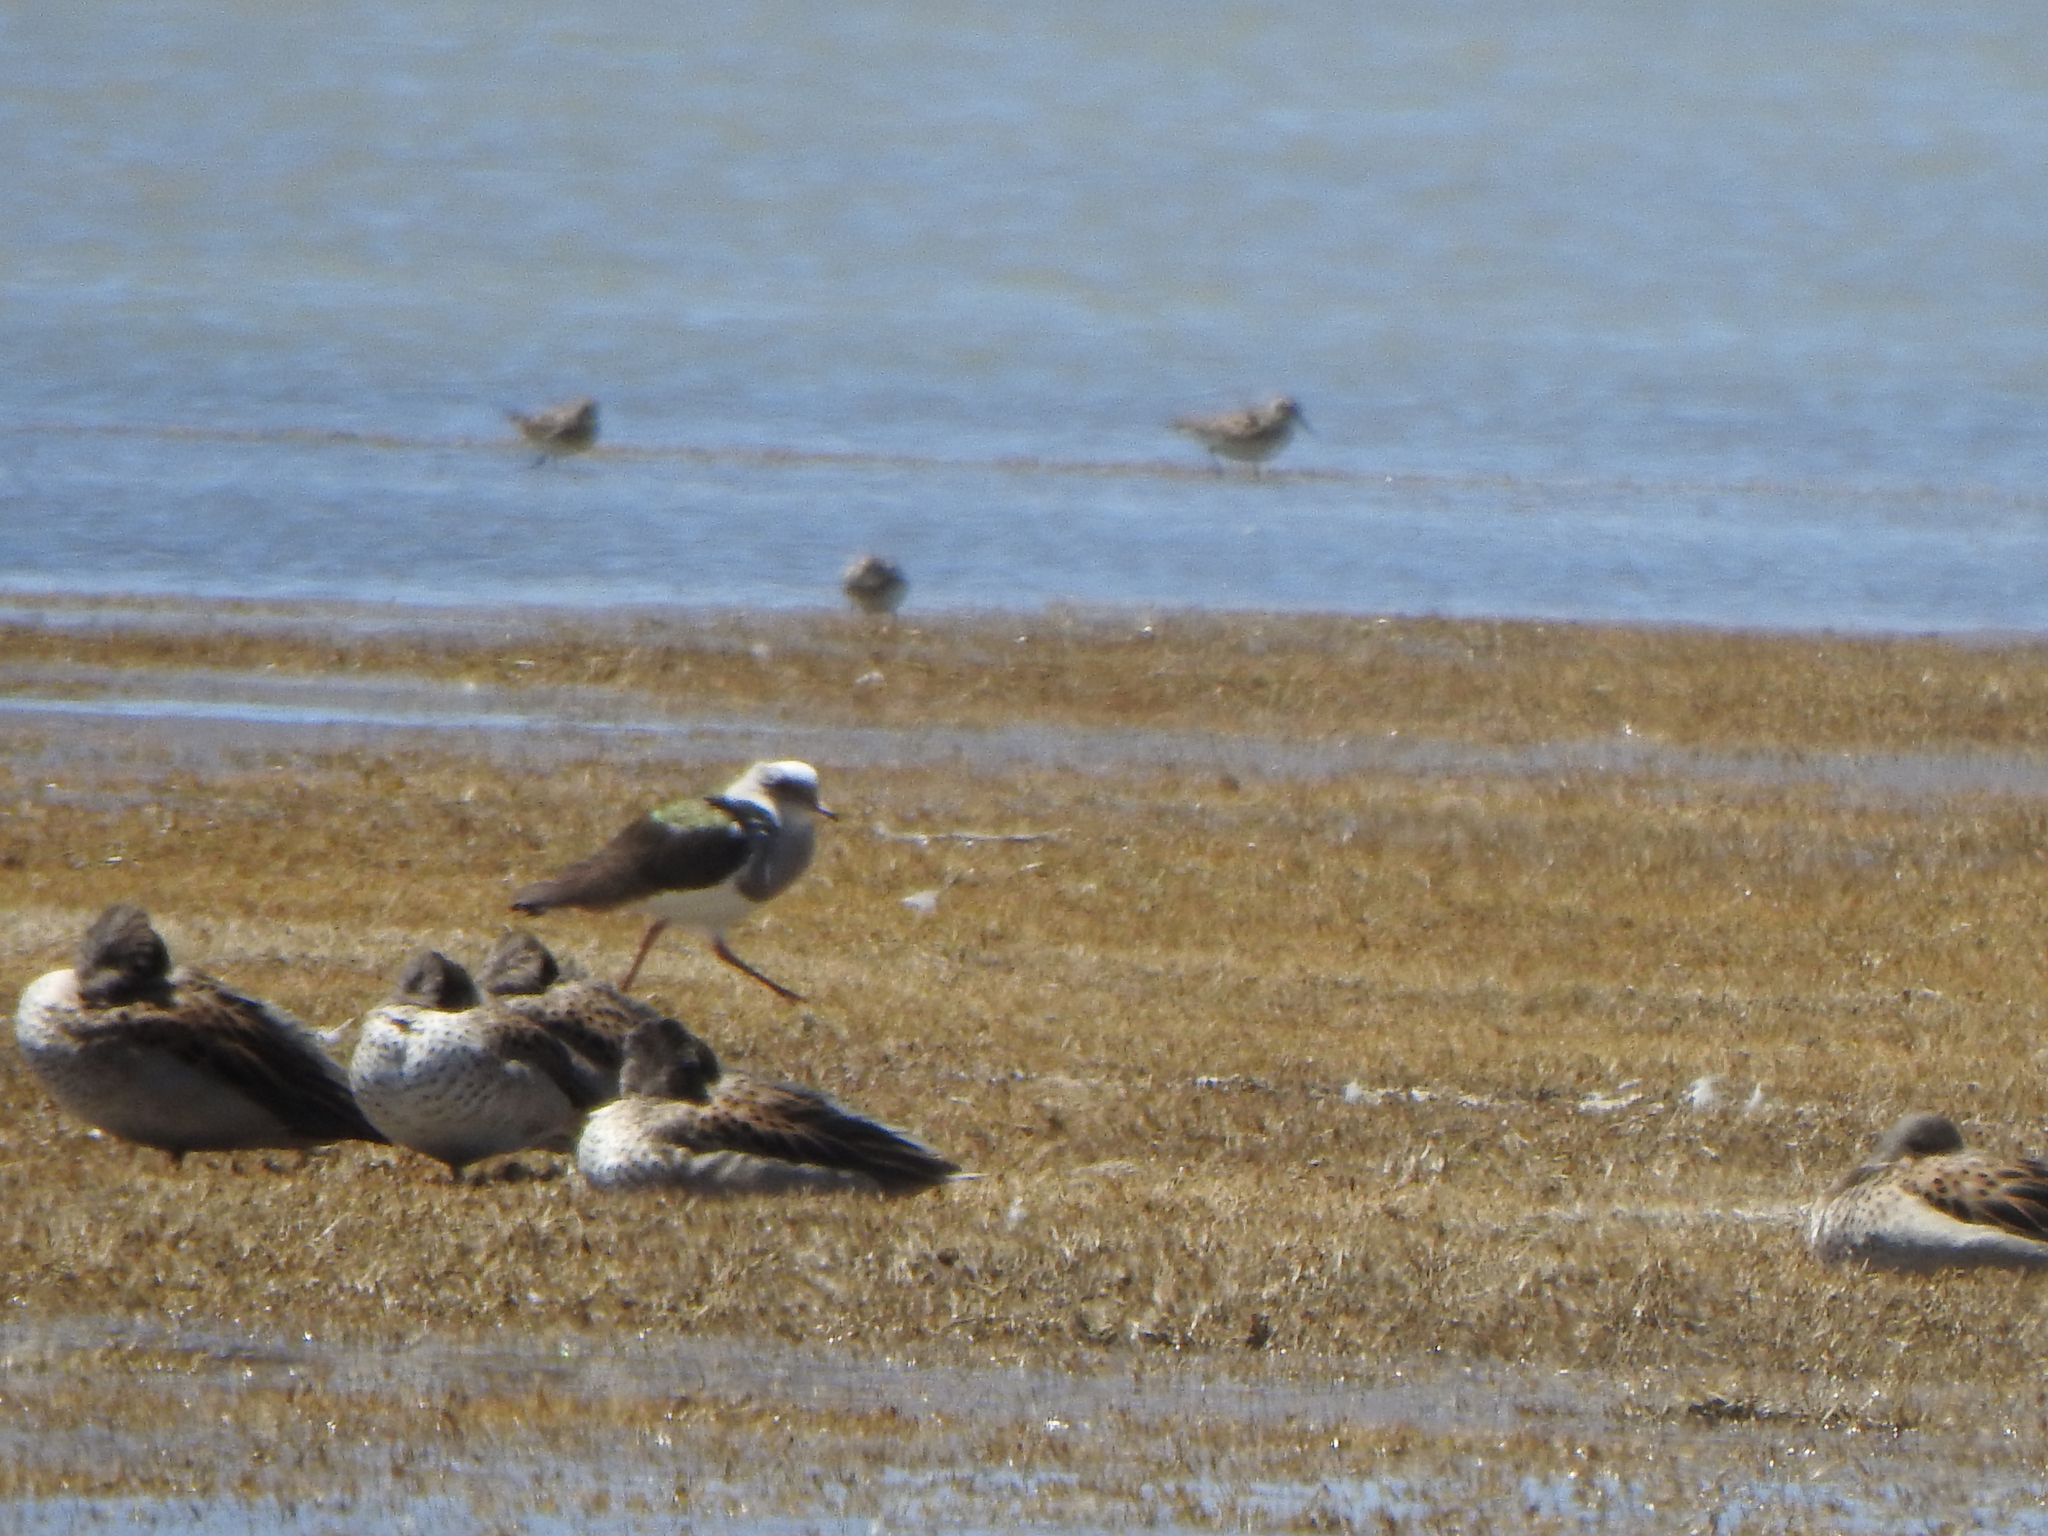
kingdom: Animalia
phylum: Chordata
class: Aves
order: Charadriiformes
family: Charadriidae
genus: Vanellus
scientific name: Vanellus resplendens
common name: Andean lapwing
